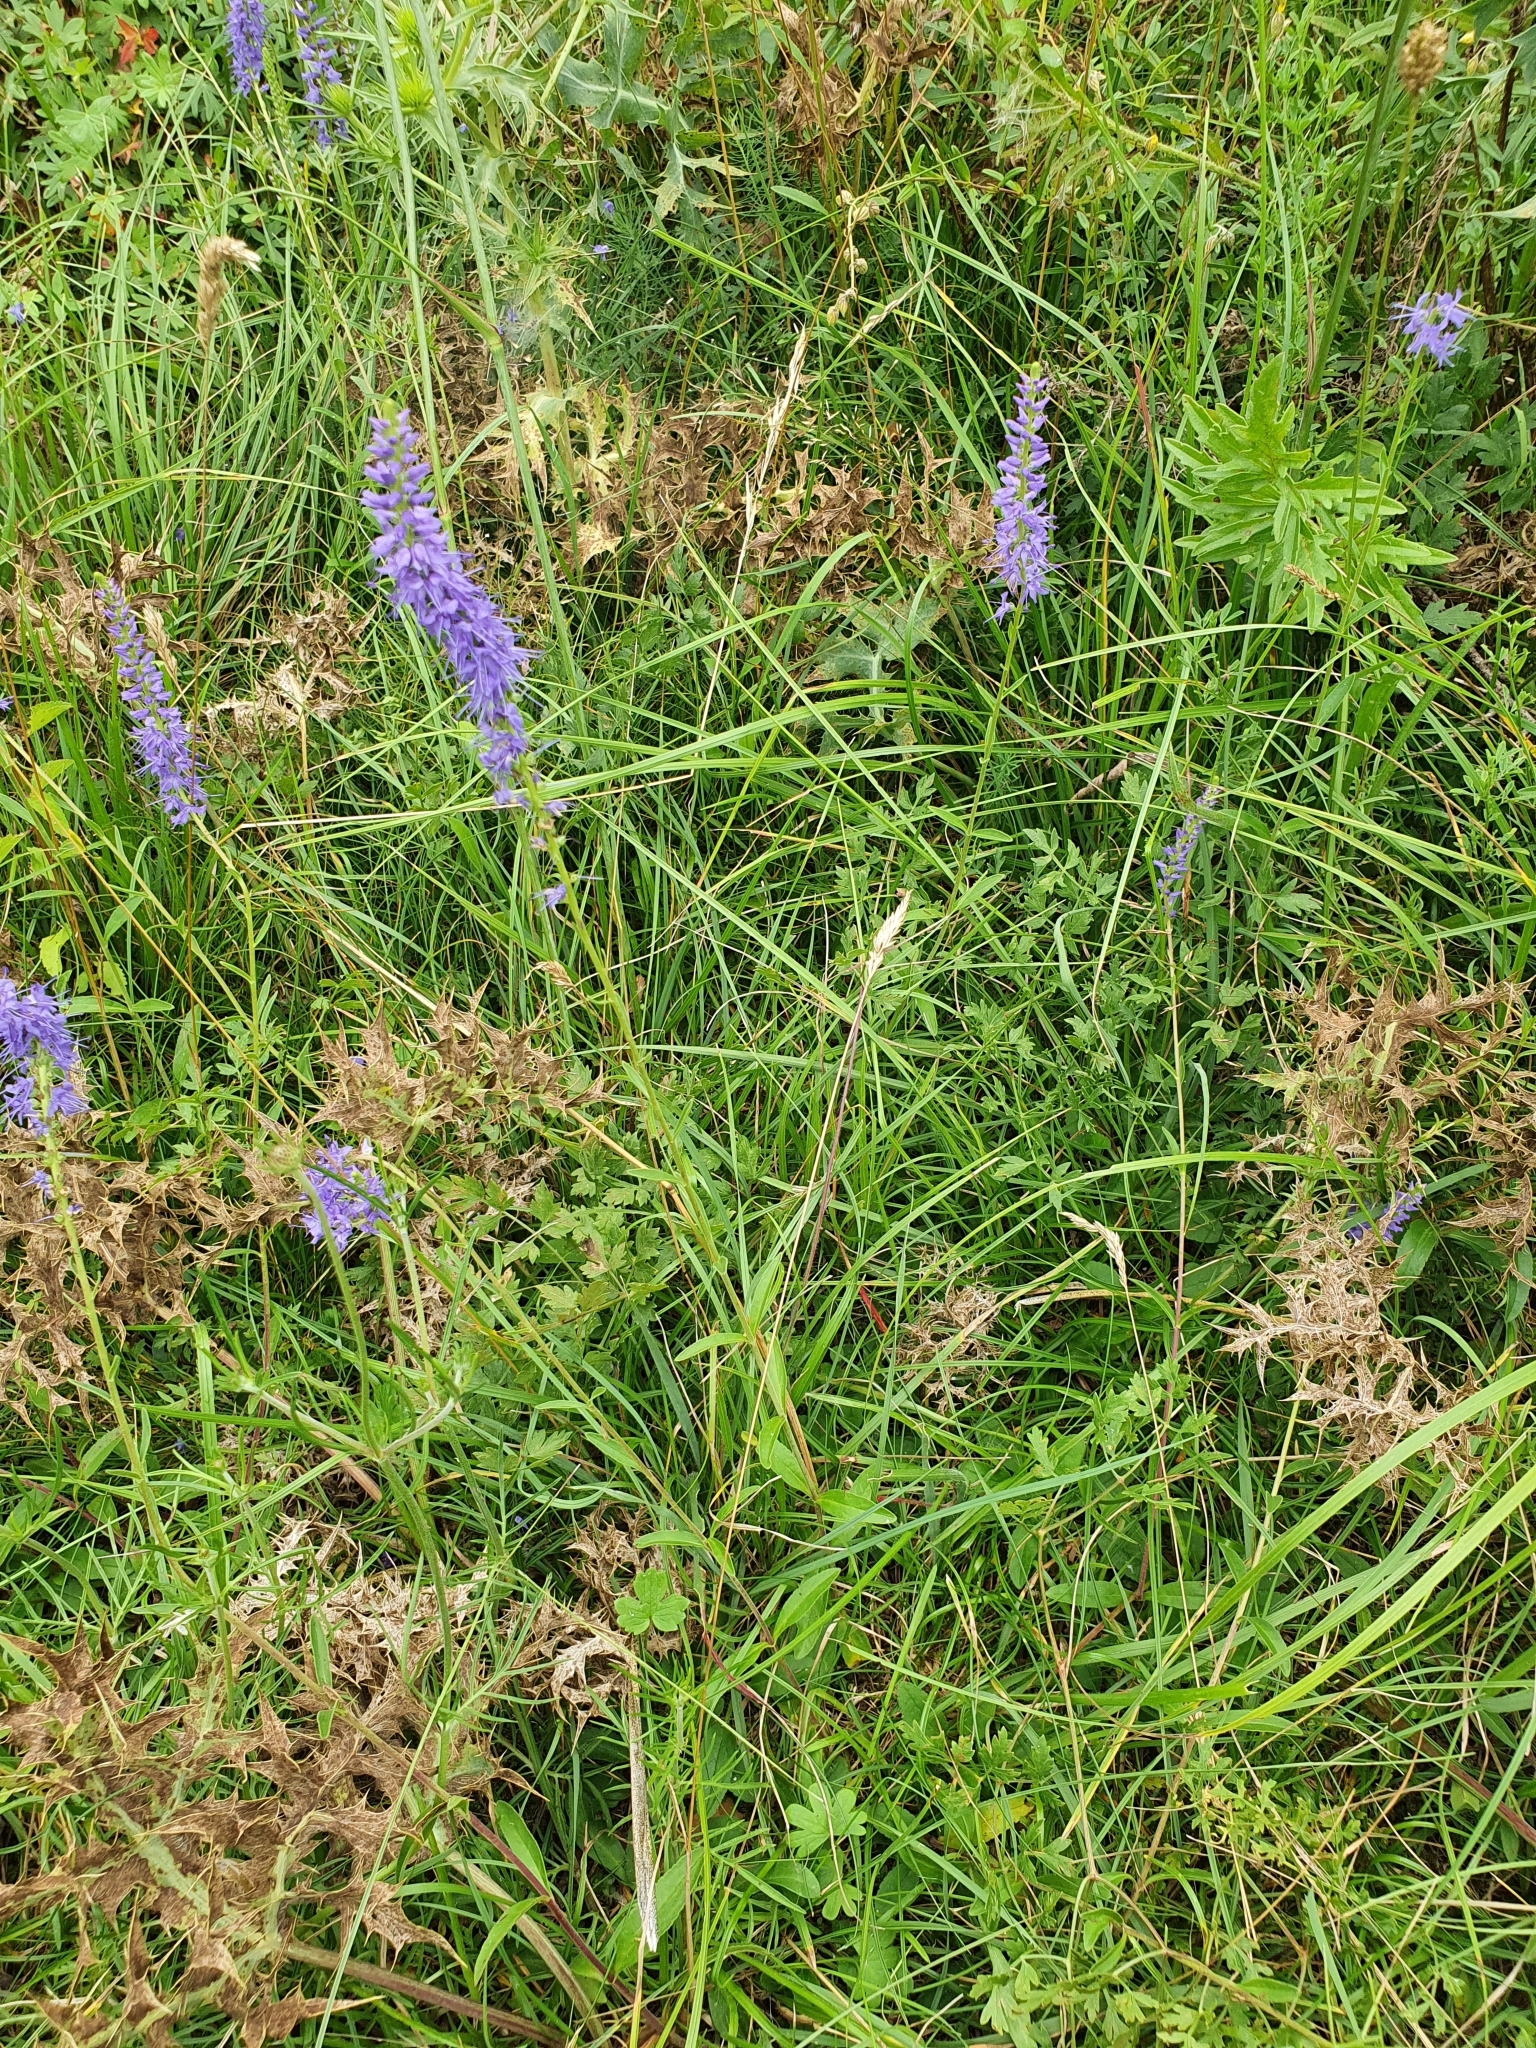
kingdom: Plantae
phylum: Tracheophyta
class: Magnoliopsida
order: Lamiales
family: Plantaginaceae
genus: Veronica
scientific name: Veronica spicata
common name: Spiked speedwell
